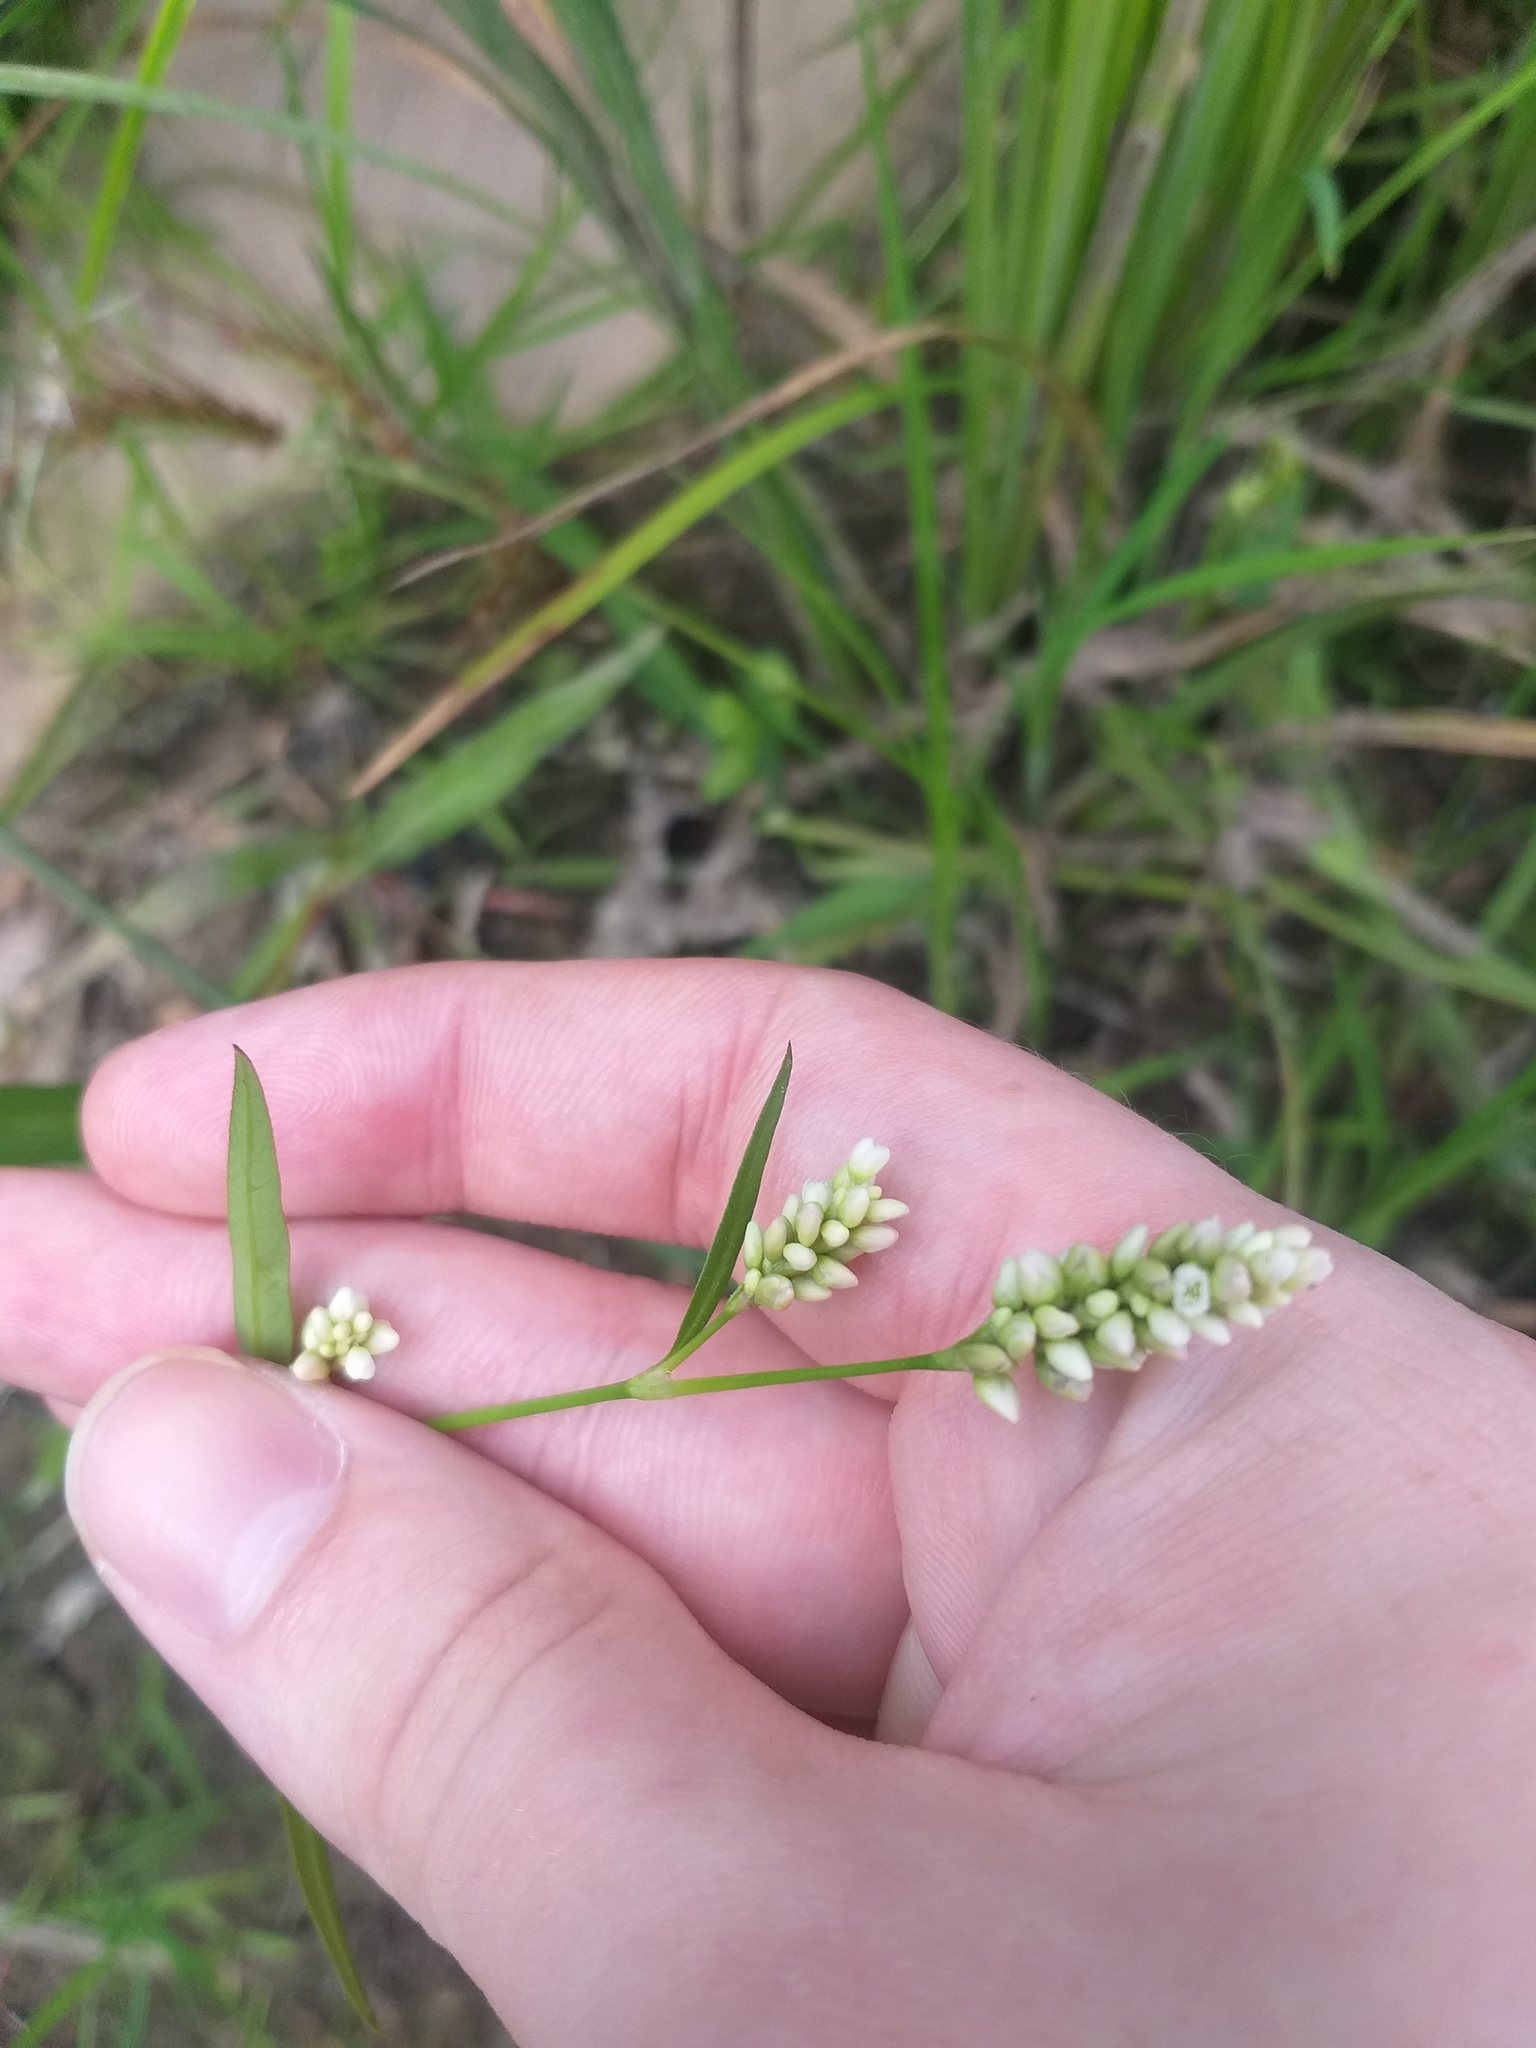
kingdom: Plantae
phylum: Tracheophyta
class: Magnoliopsida
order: Caryophyllales
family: Polygonaceae
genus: Persicaria
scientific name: Persicaria maculosa
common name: Redshank
